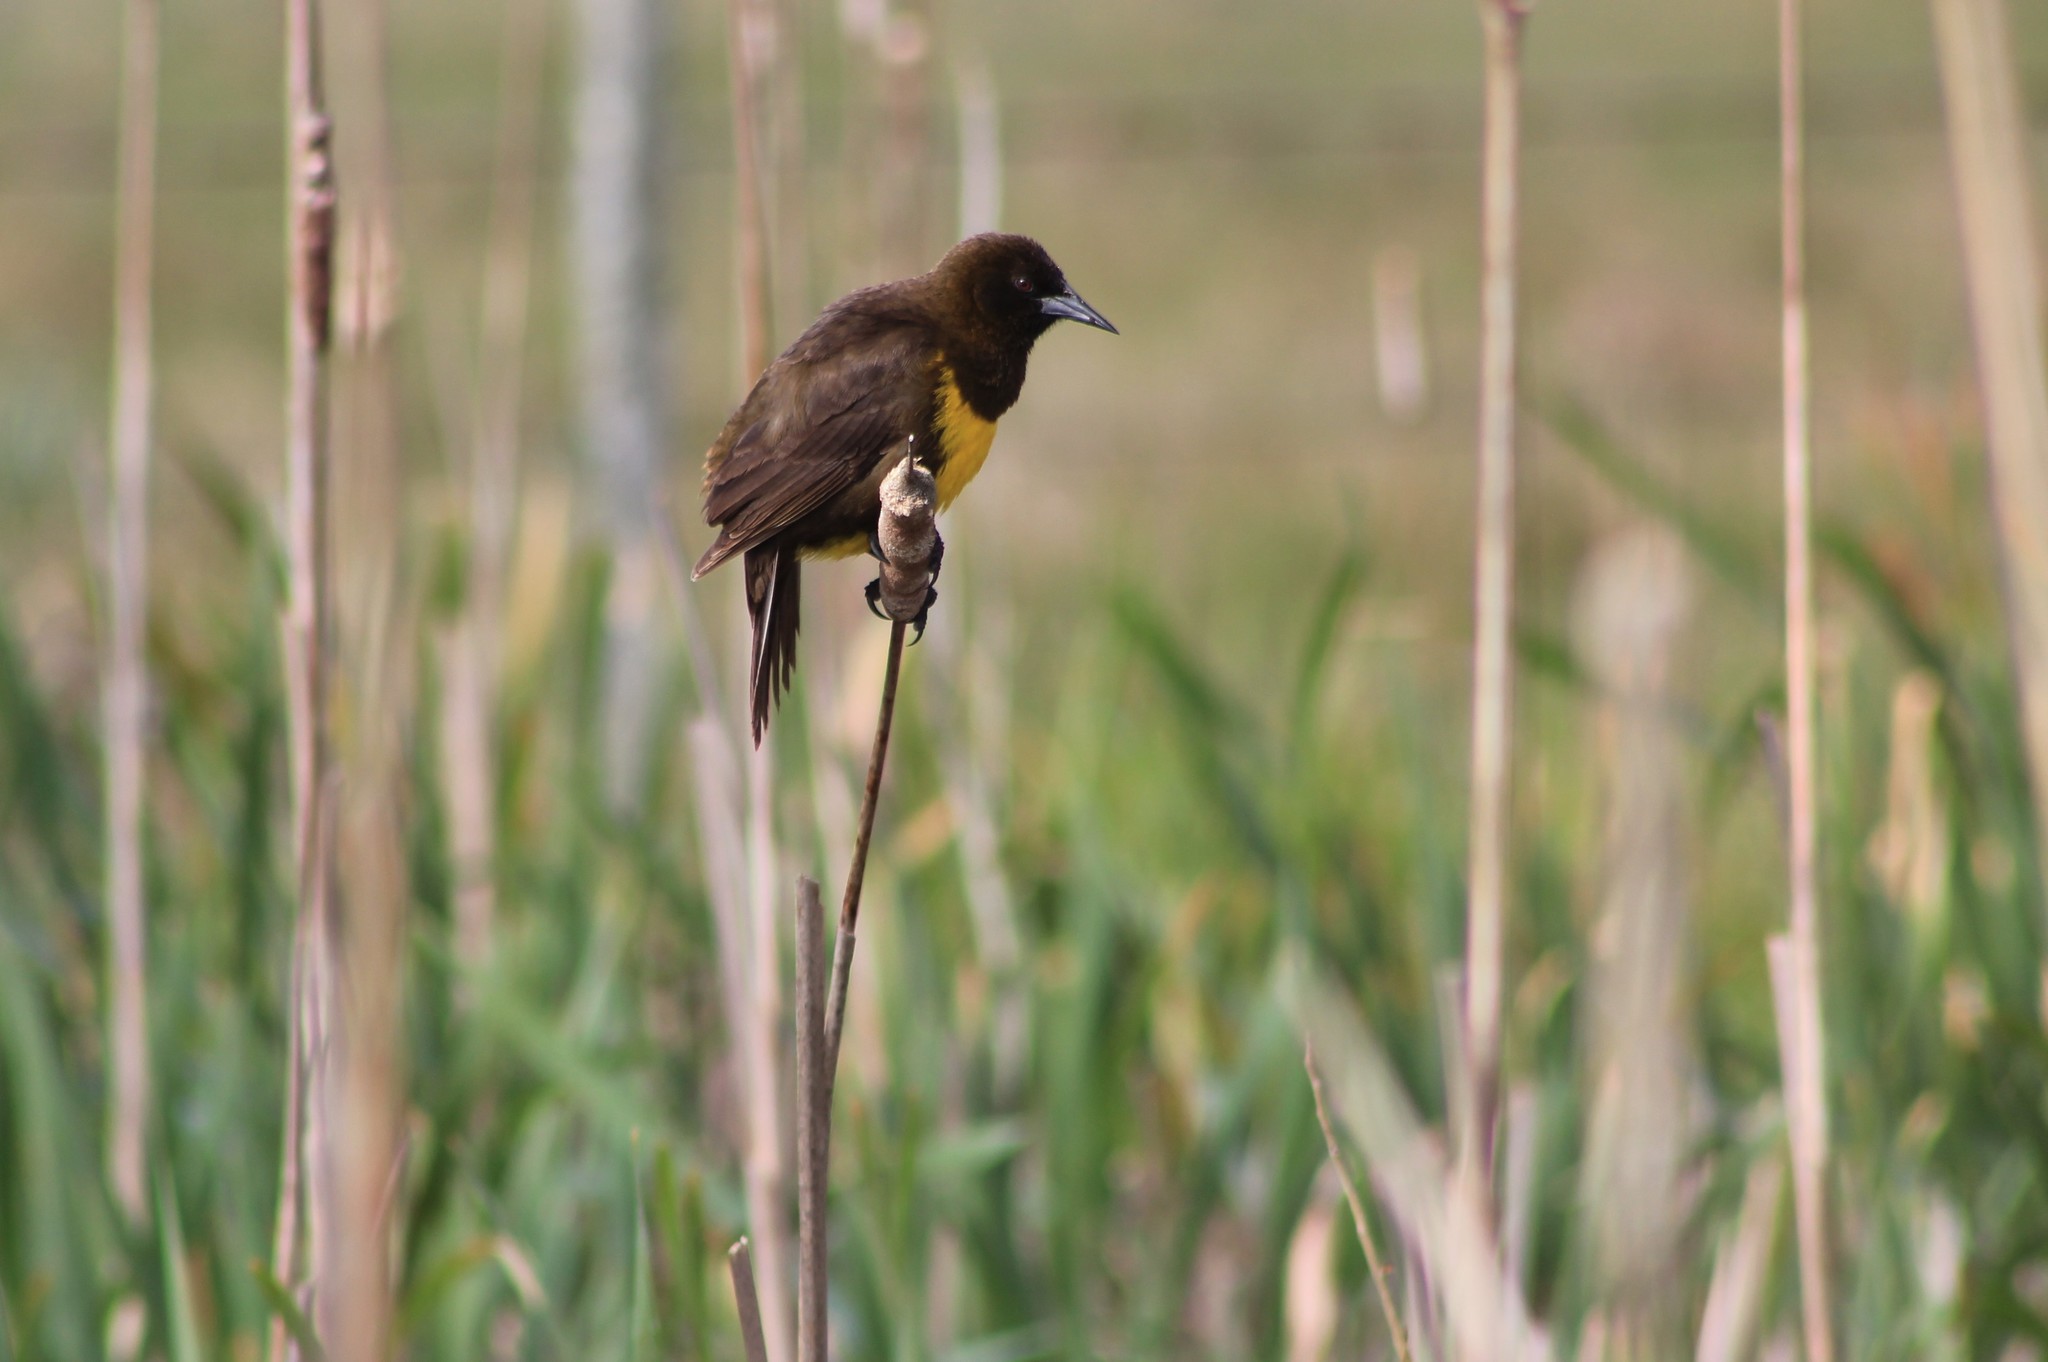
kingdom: Animalia
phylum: Chordata
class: Aves
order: Passeriformes
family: Icteridae
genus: Pseudoleistes
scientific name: Pseudoleistes virescens
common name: Brown-and-yellow marshbird
